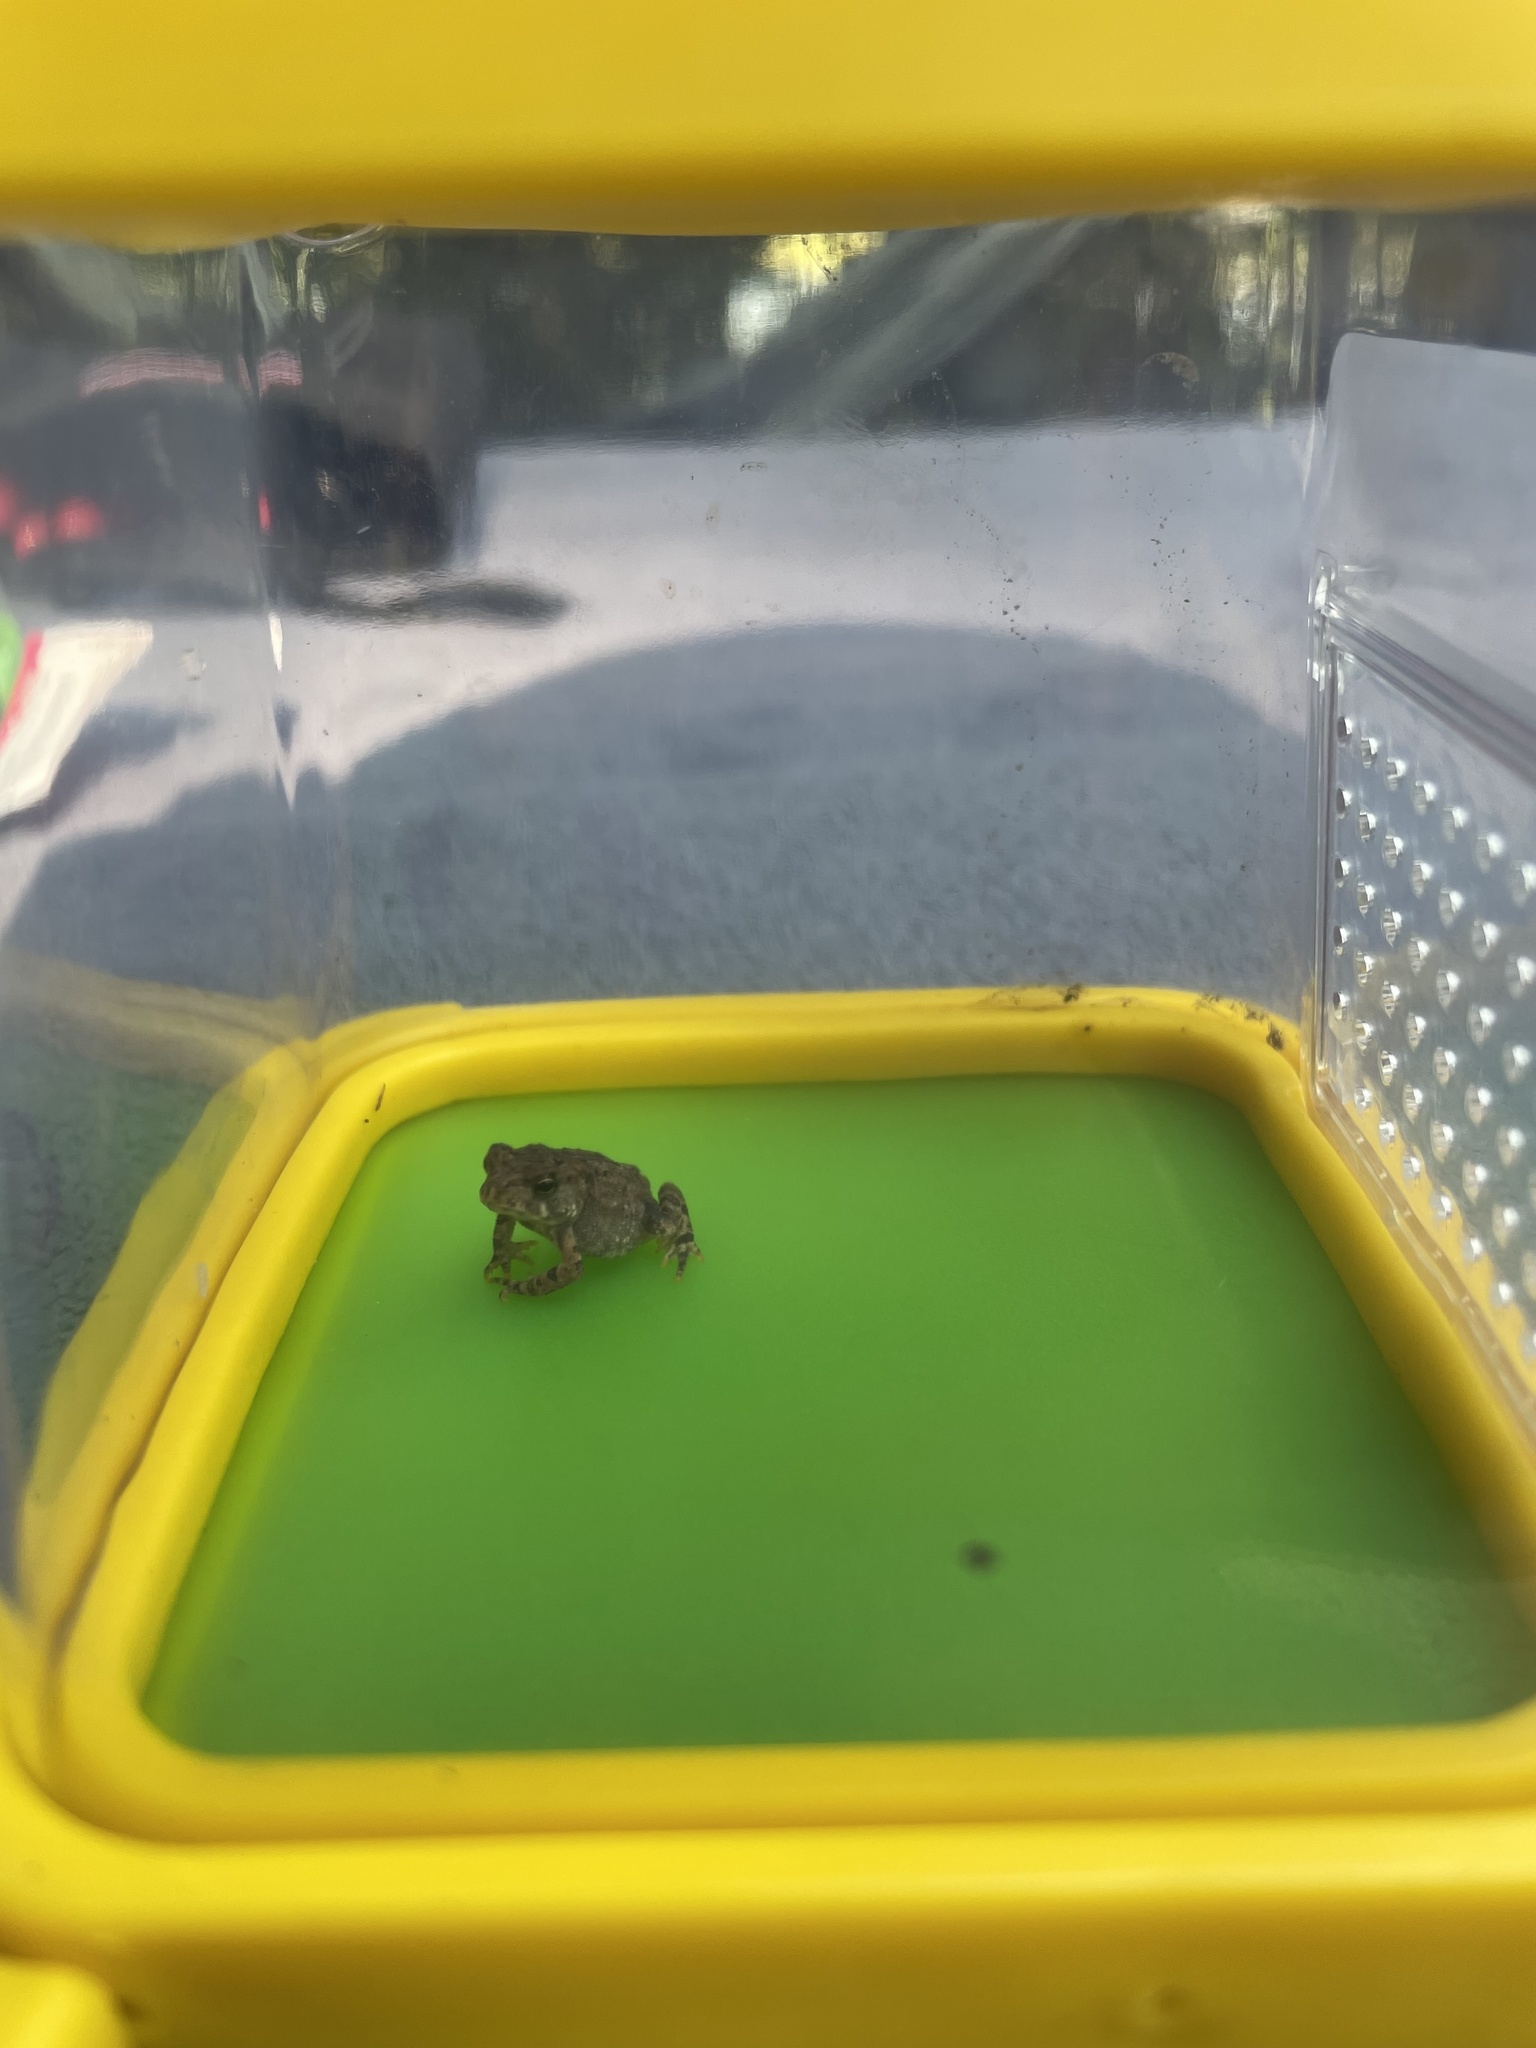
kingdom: Animalia
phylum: Chordata
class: Amphibia
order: Anura
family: Bufonidae
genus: Anaxyrus
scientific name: Anaxyrus americanus
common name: American toad
